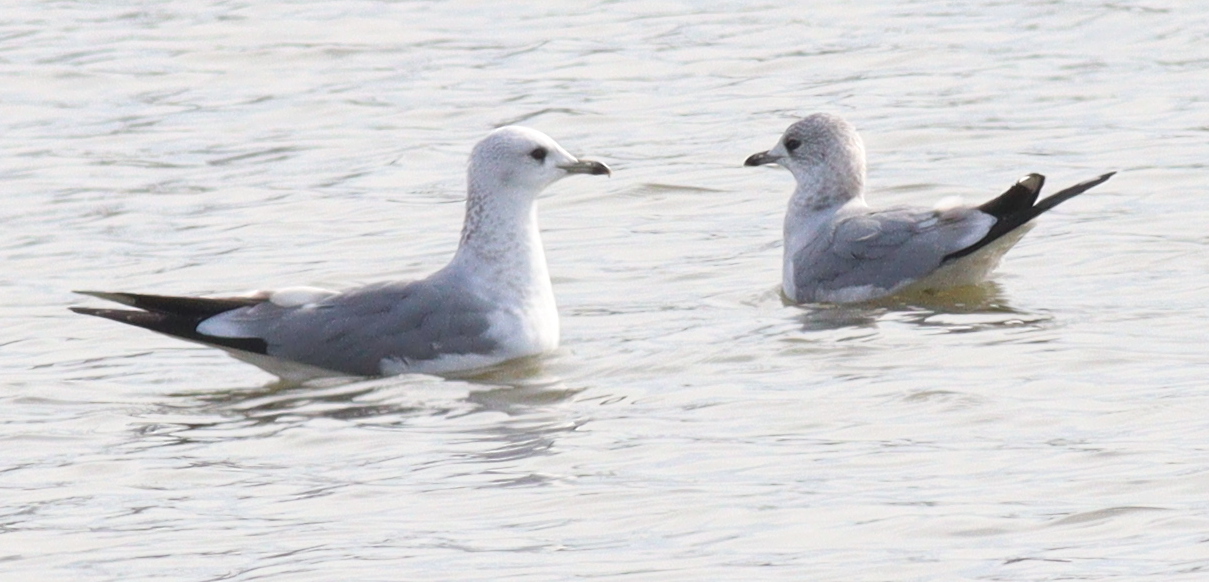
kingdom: Animalia
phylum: Chordata
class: Aves
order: Charadriiformes
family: Laridae
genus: Larus
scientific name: Larus canus
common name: Mew gull
